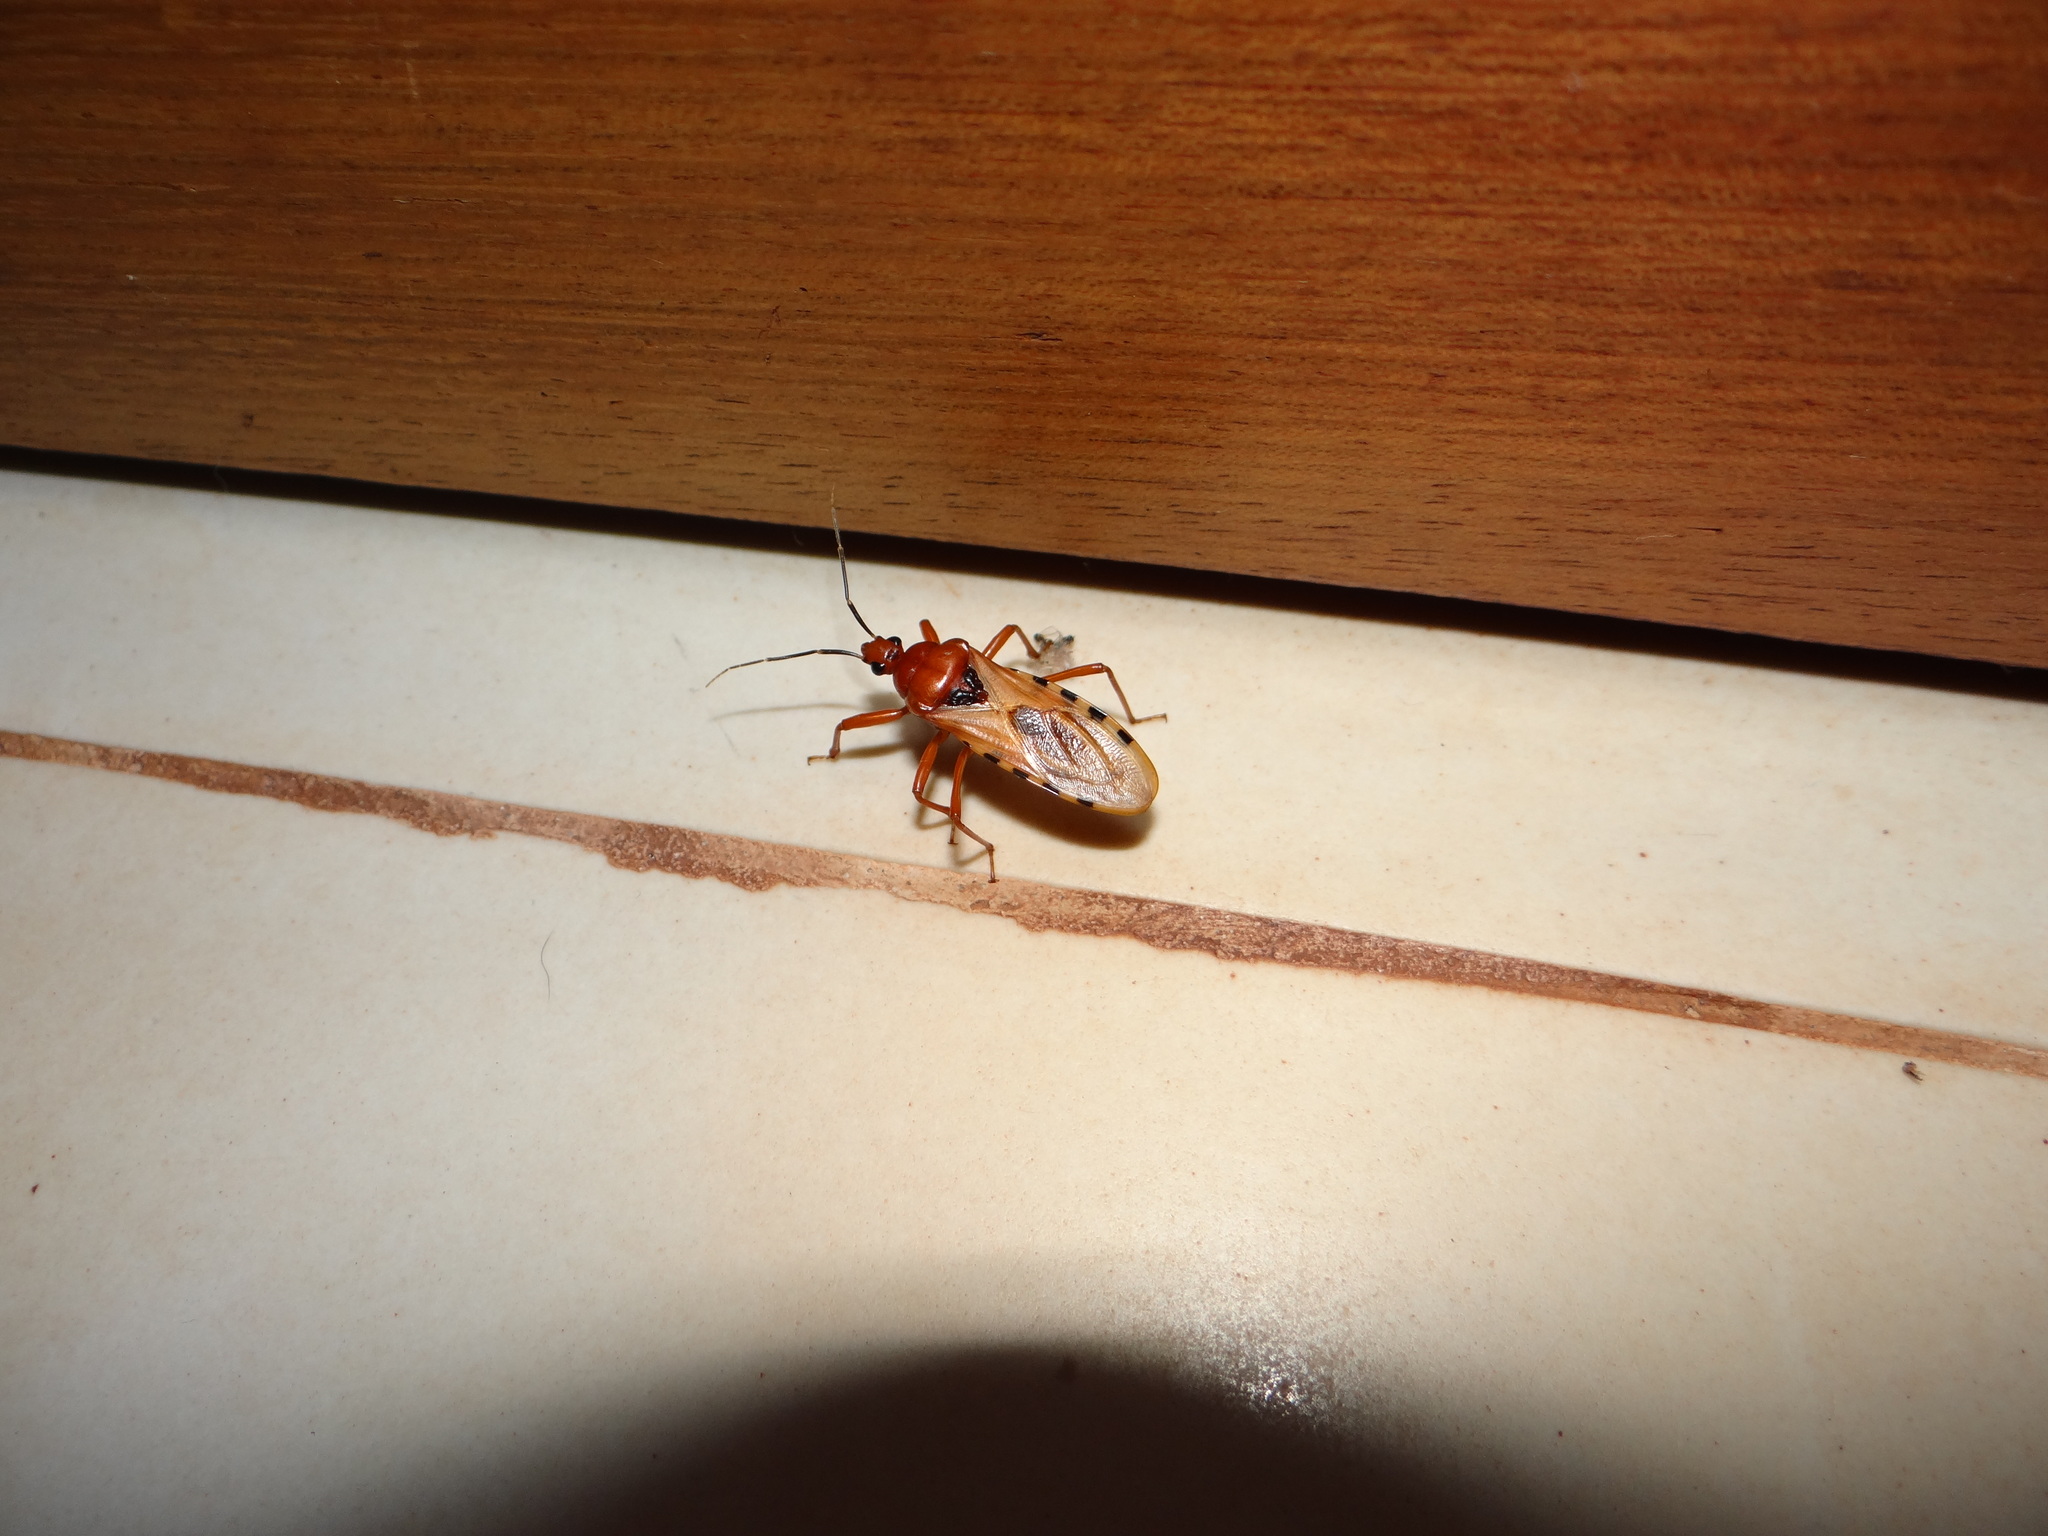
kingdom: Animalia
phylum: Arthropoda
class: Insecta
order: Hemiptera
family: Reduviidae
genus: Brontostoma
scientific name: Brontostoma rubrum
